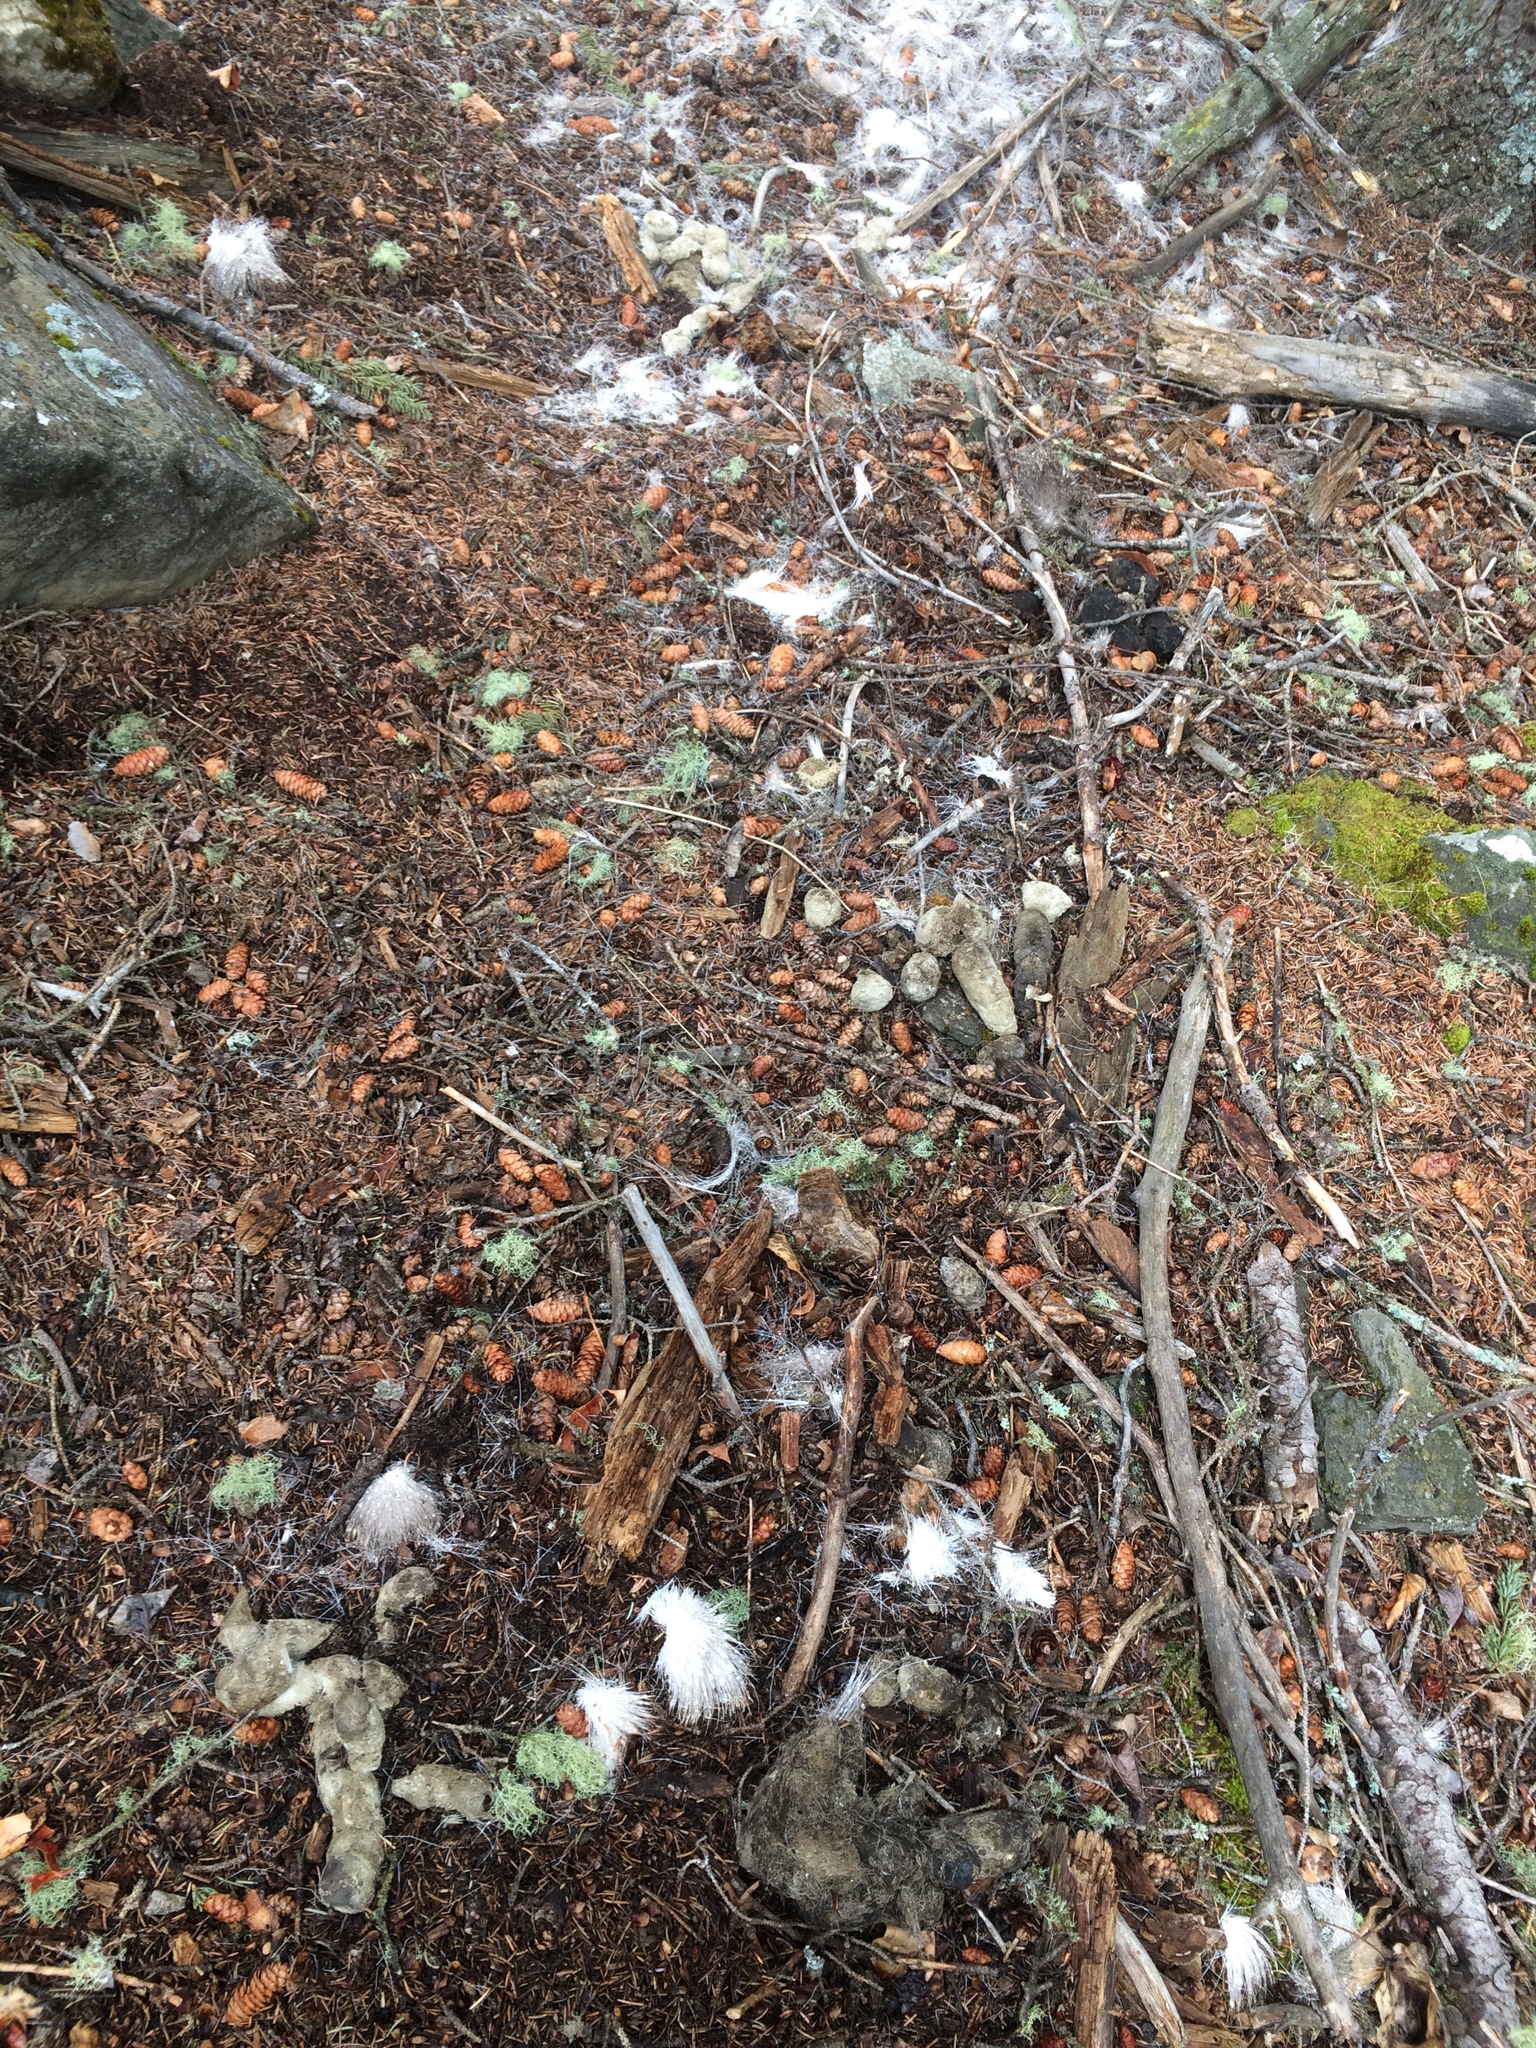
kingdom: Animalia
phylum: Chordata
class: Mammalia
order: Carnivora
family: Canidae
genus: Canis
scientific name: Canis lupus
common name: Gray wolf
